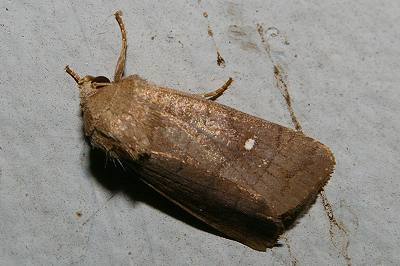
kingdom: Animalia
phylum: Arthropoda
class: Insecta
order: Lepidoptera
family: Noctuidae
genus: Proxenus
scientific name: Proxenus
